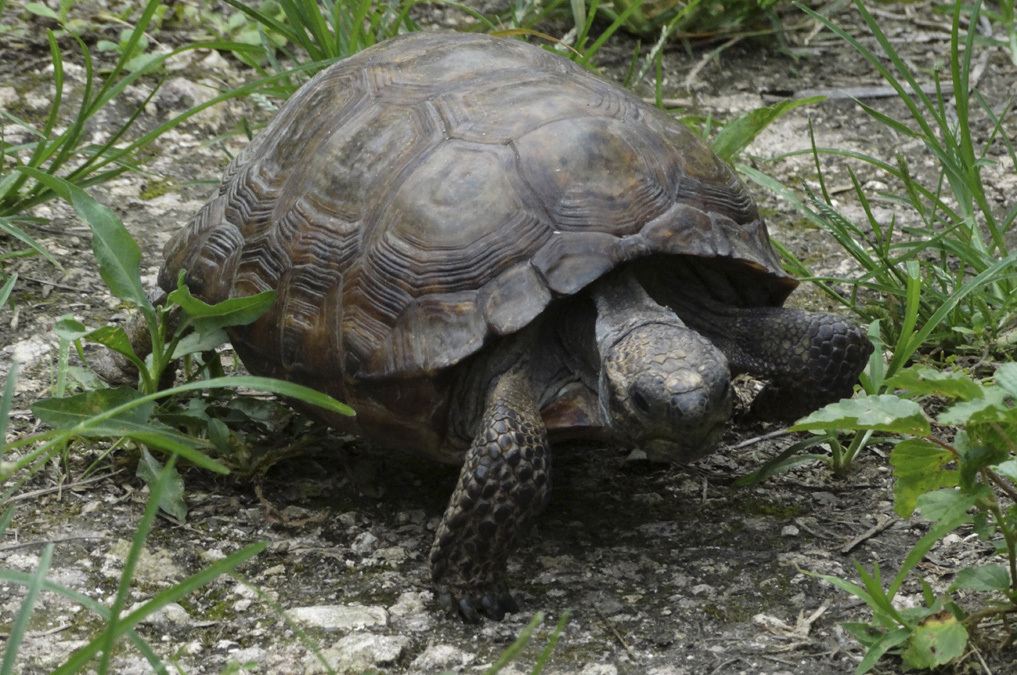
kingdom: Animalia
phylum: Chordata
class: Testudines
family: Testudinidae
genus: Gopherus
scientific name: Gopherus berlandieri
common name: Texas (gopher )tortoise
